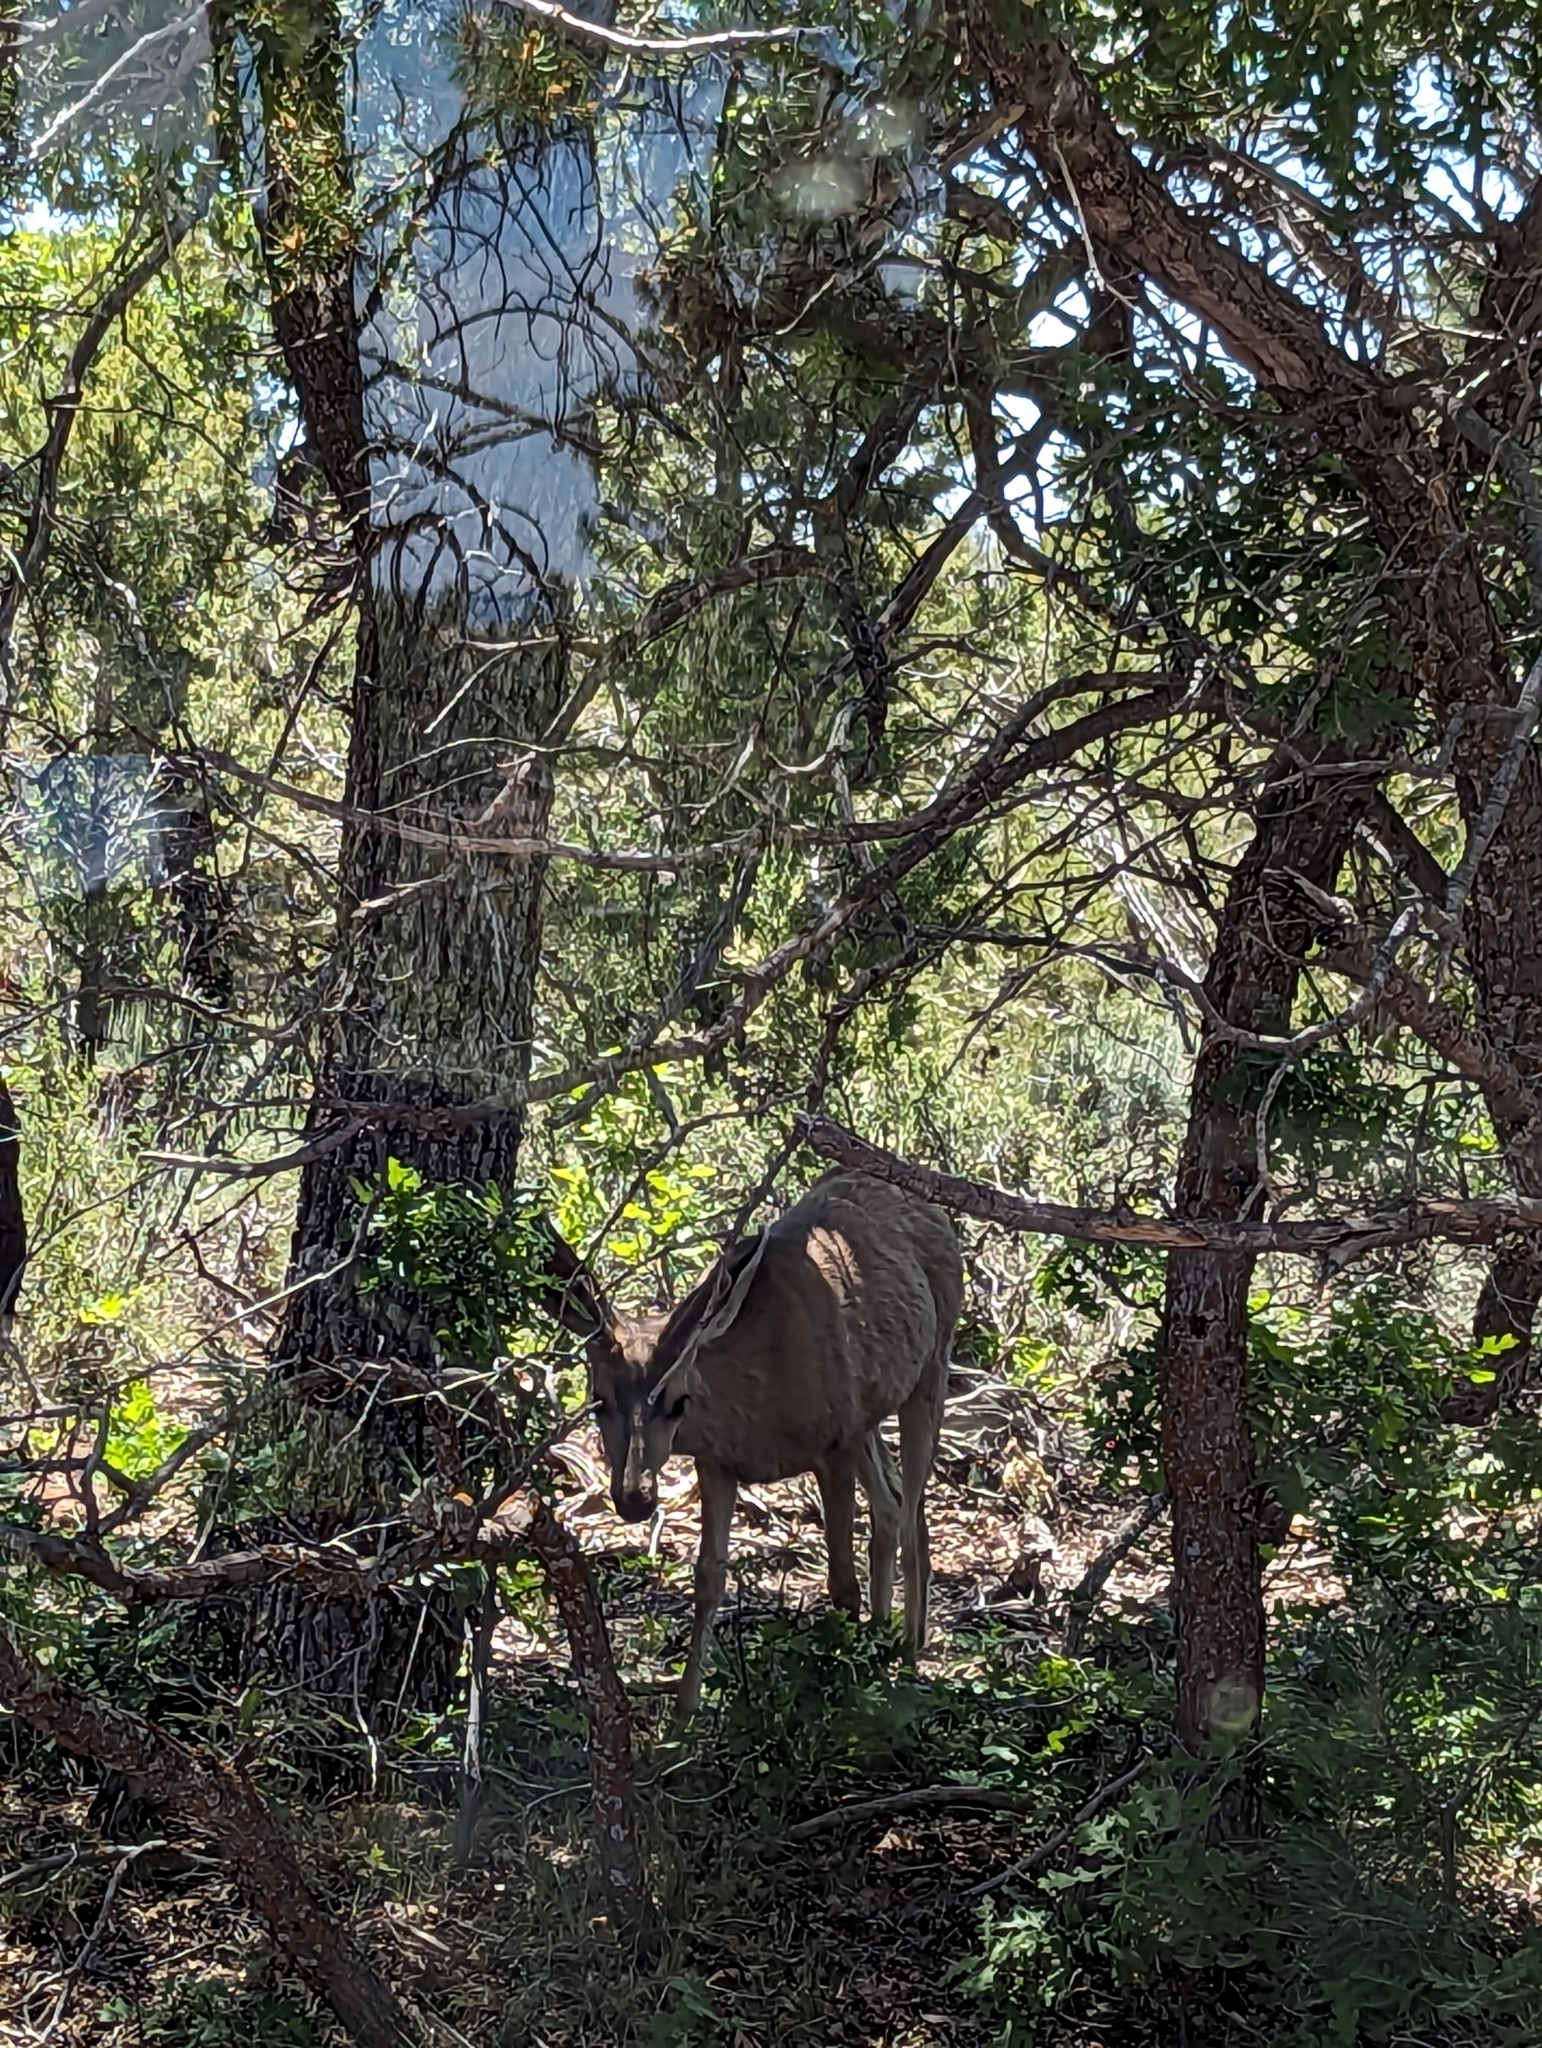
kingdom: Animalia
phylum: Chordata
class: Mammalia
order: Artiodactyla
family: Cervidae
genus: Odocoileus
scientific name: Odocoileus hemionus
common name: Mule deer
